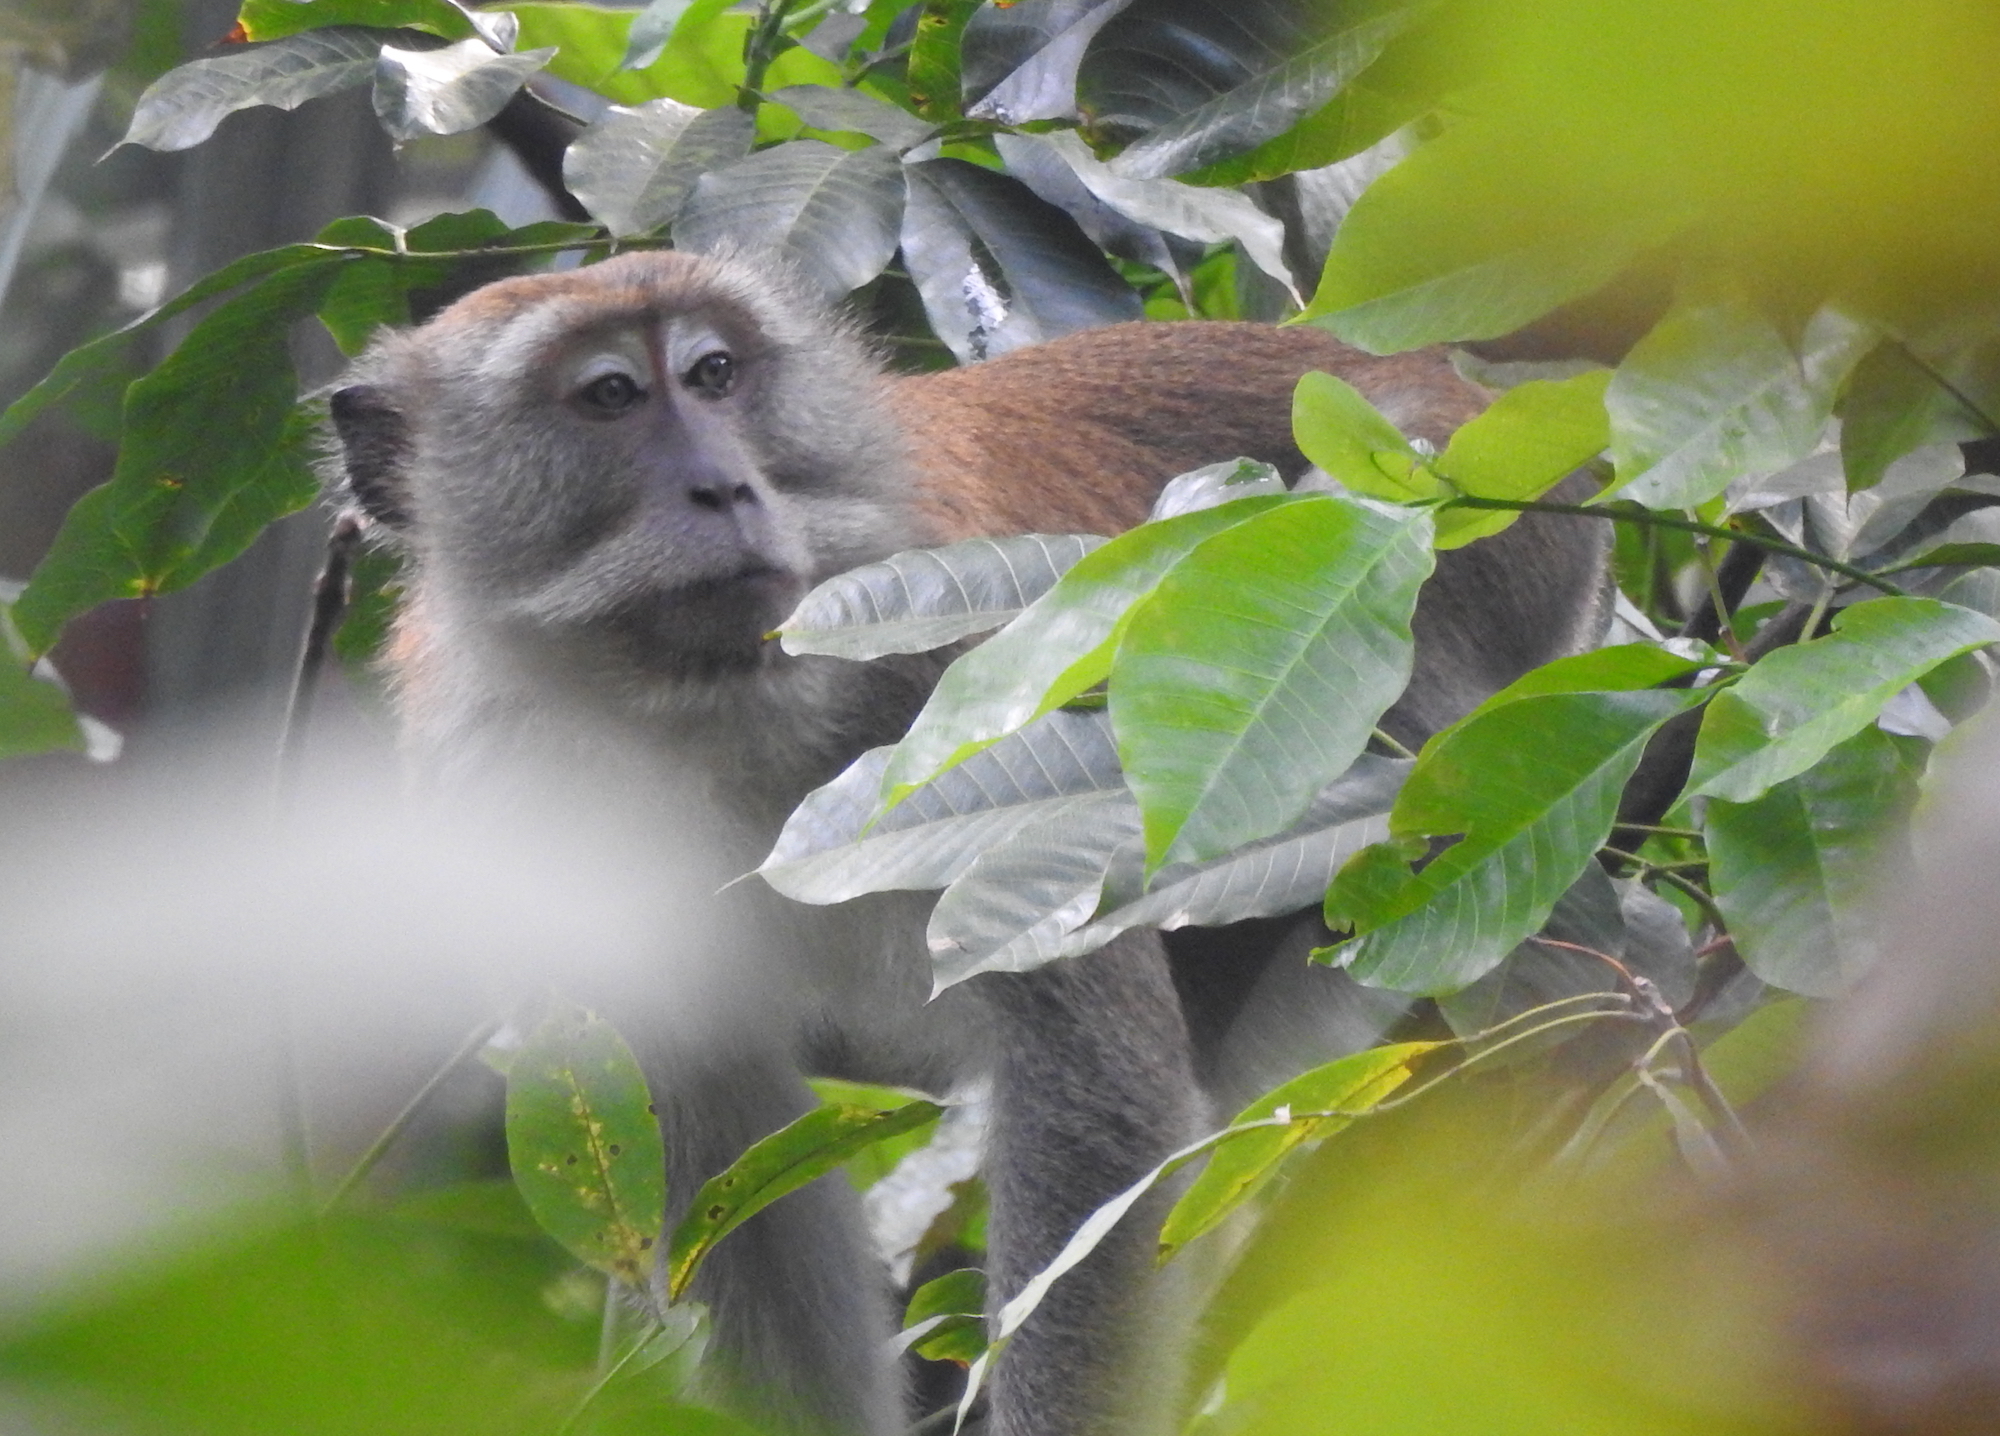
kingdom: Animalia
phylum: Chordata
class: Mammalia
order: Primates
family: Cercopithecidae
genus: Macaca
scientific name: Macaca fascicularis
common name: Crab-eating macaque
